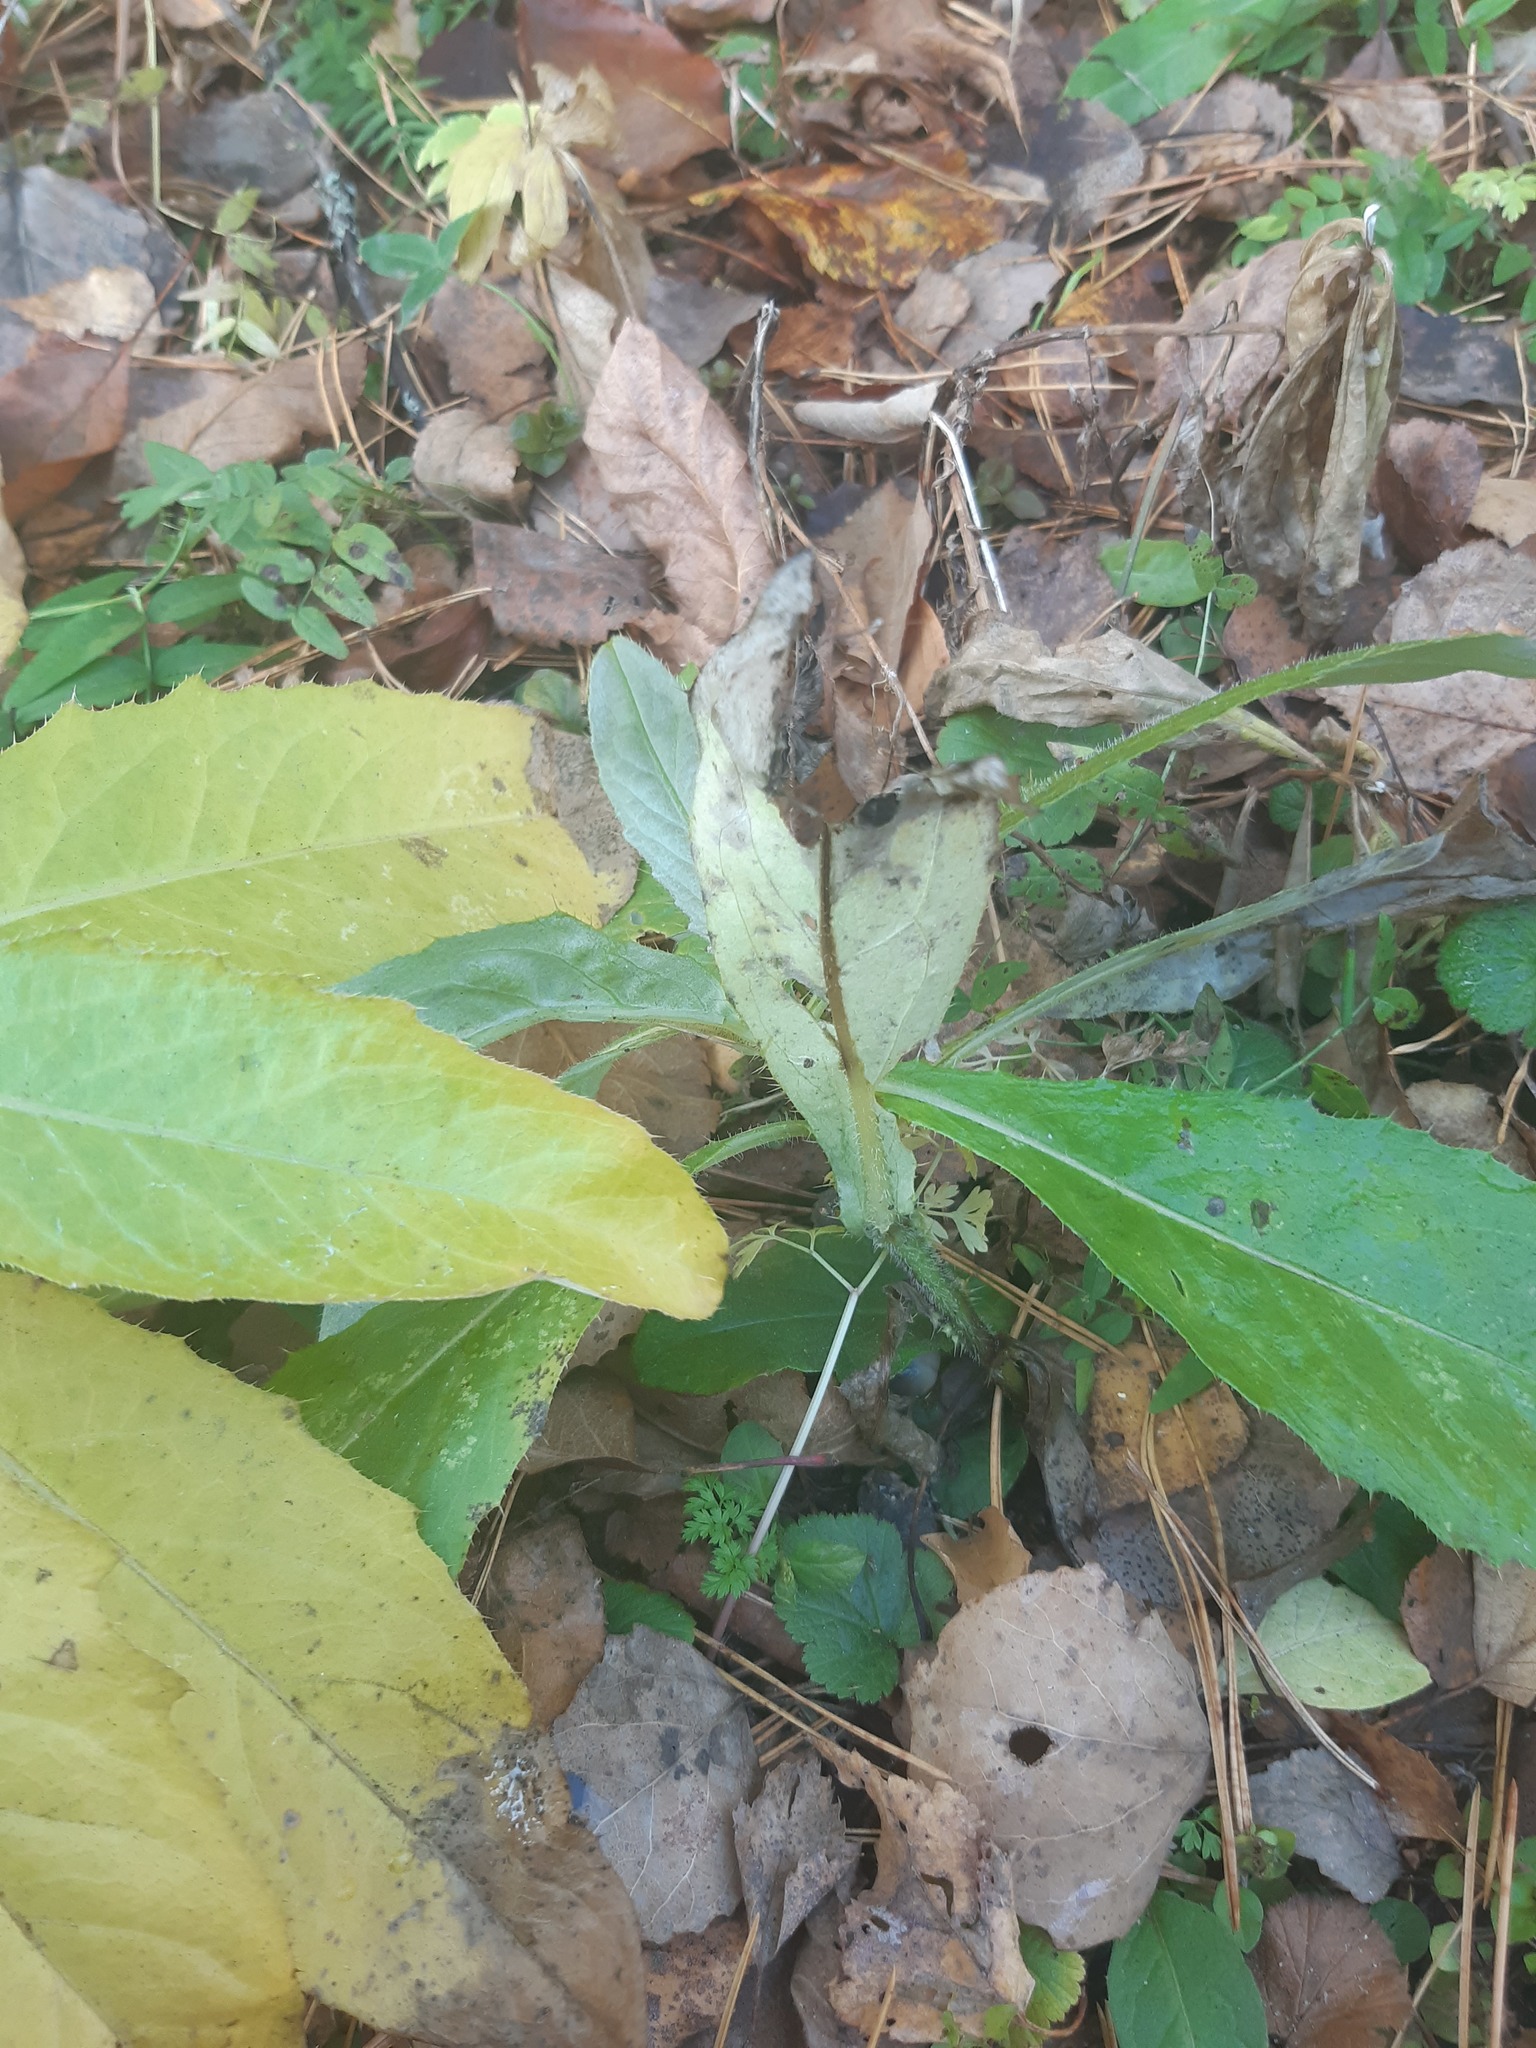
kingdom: Plantae
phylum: Tracheophyta
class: Magnoliopsida
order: Asterales
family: Asteraceae
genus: Cirsium
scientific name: Cirsium arvense
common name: Creeping thistle
